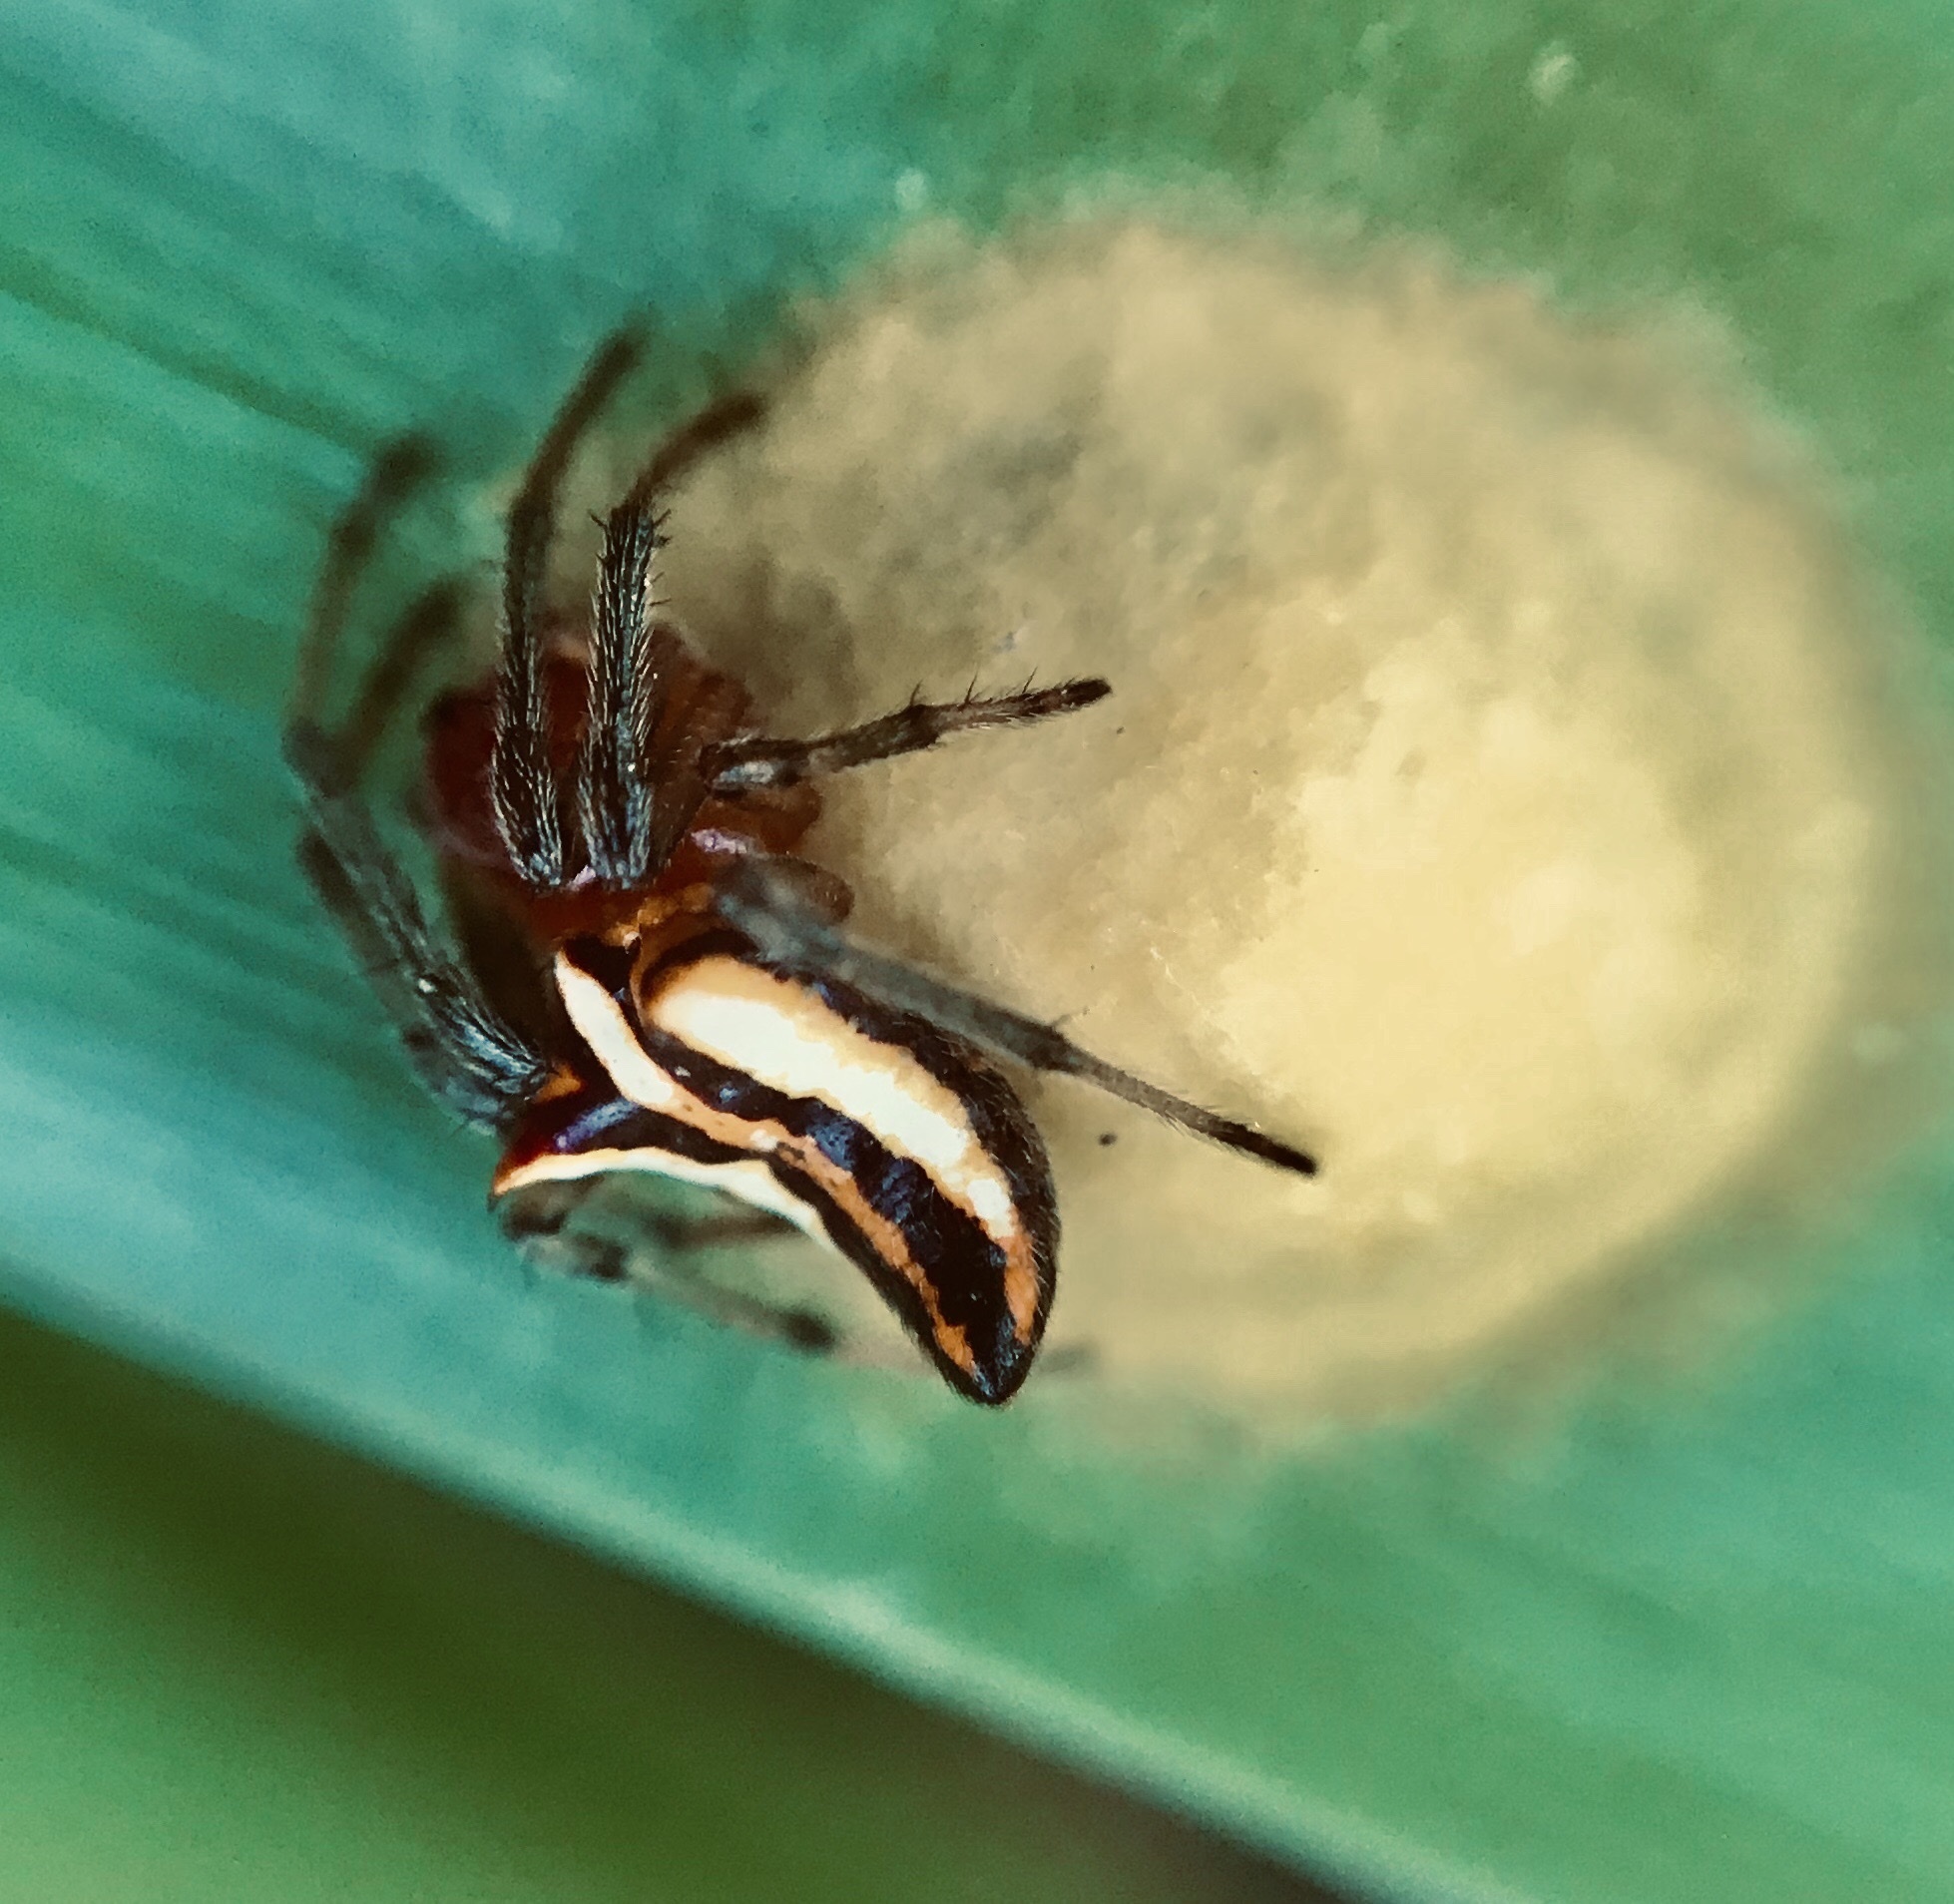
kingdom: Animalia
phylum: Arthropoda
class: Arachnida
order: Araneae
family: Araneidae
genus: Alpaida
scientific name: Alpaida bicornuta
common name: Orb weavers
